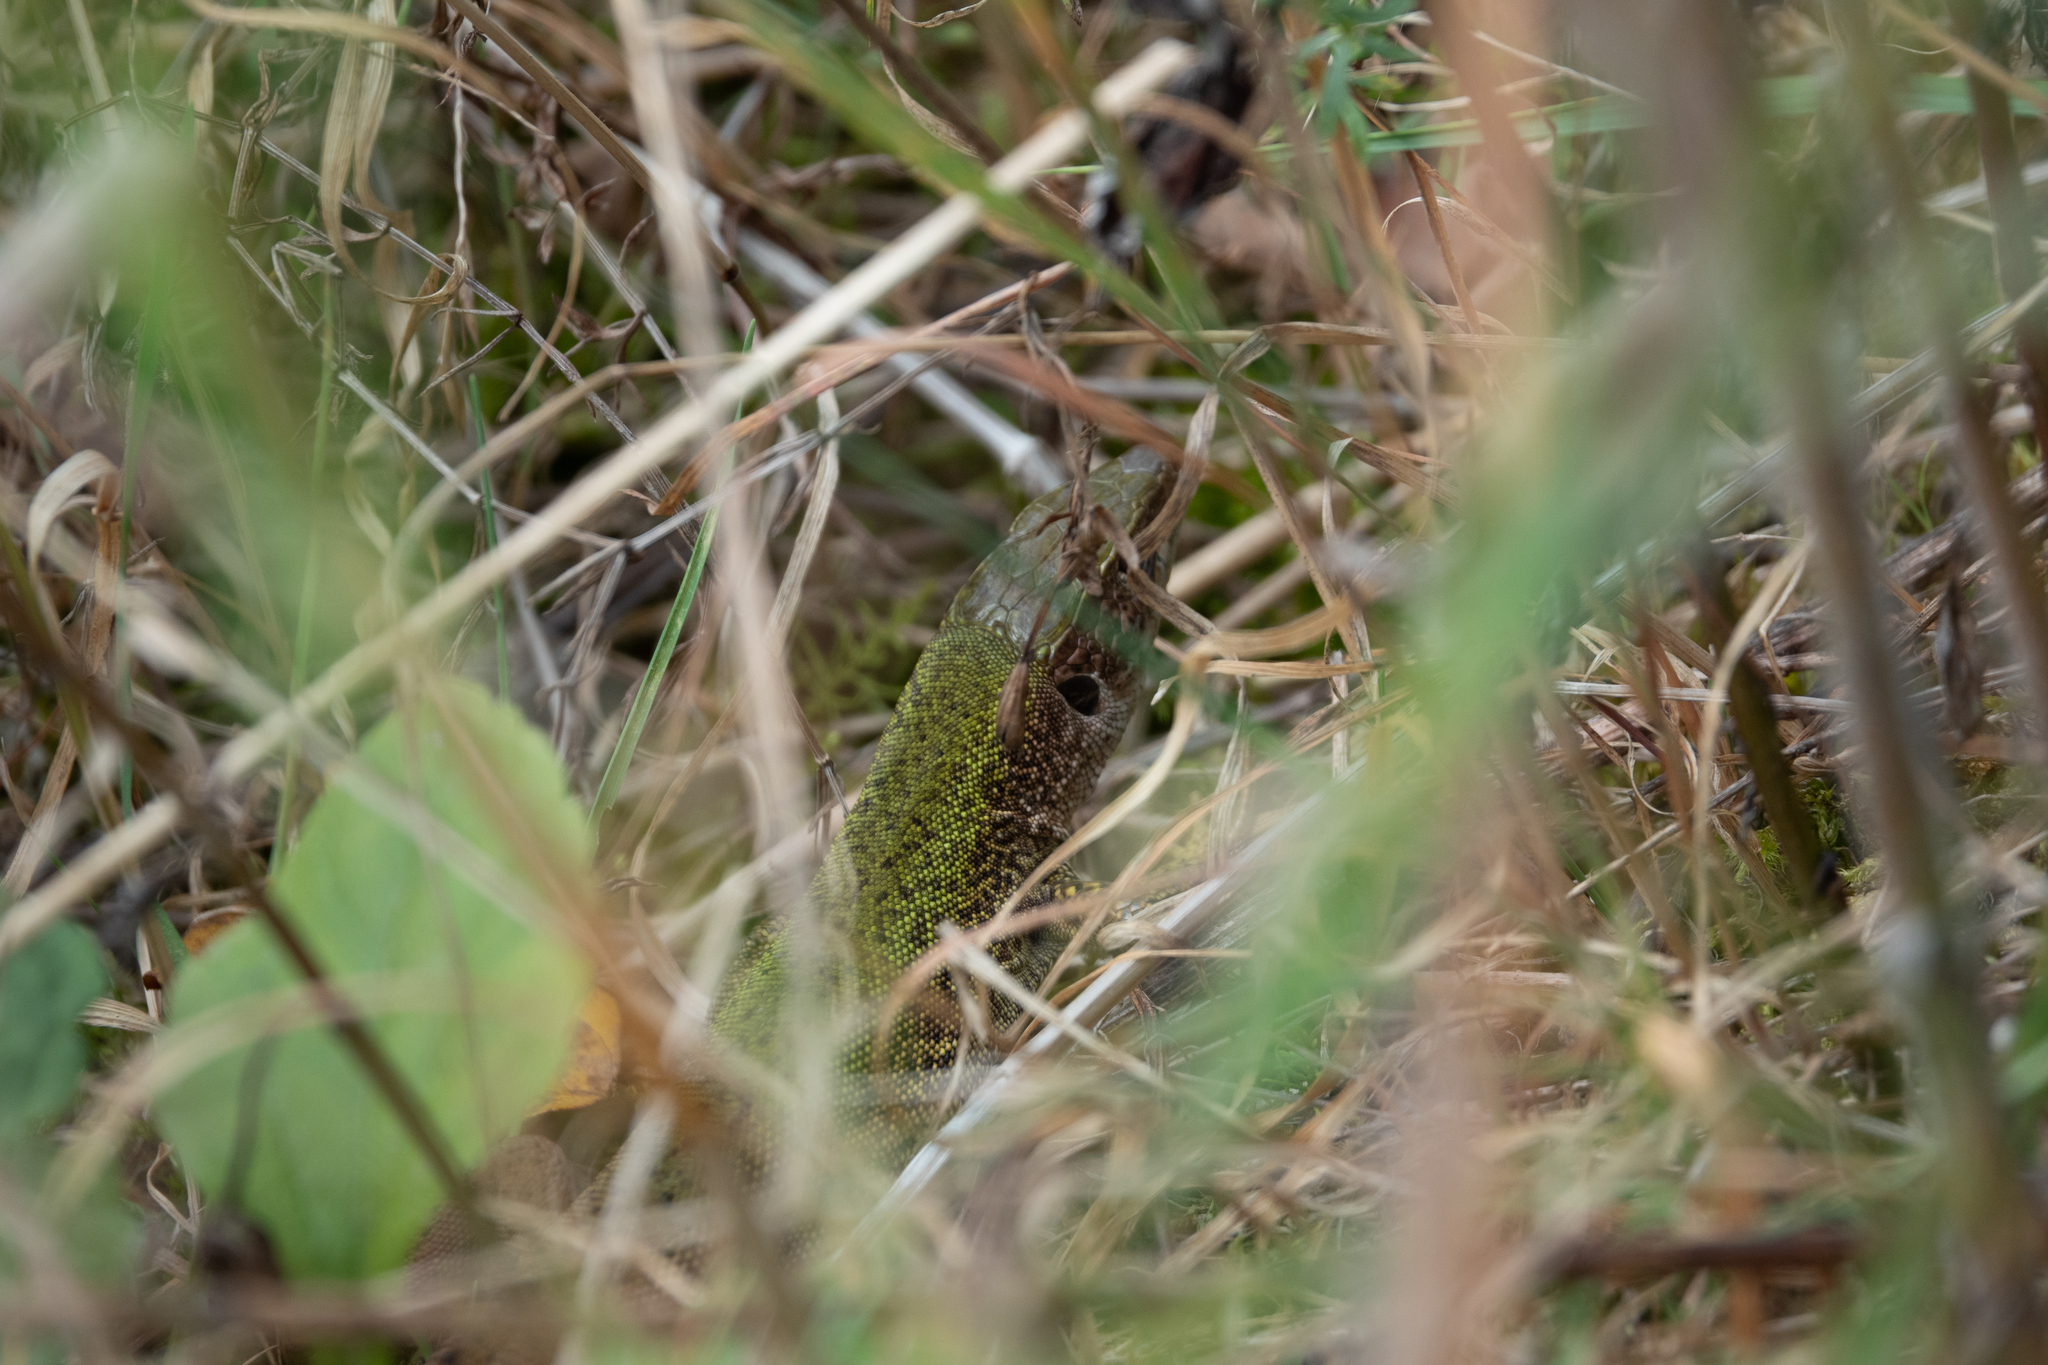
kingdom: Animalia
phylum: Chordata
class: Squamata
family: Lacertidae
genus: Lacerta
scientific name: Lacerta viridis
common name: European green lizard
